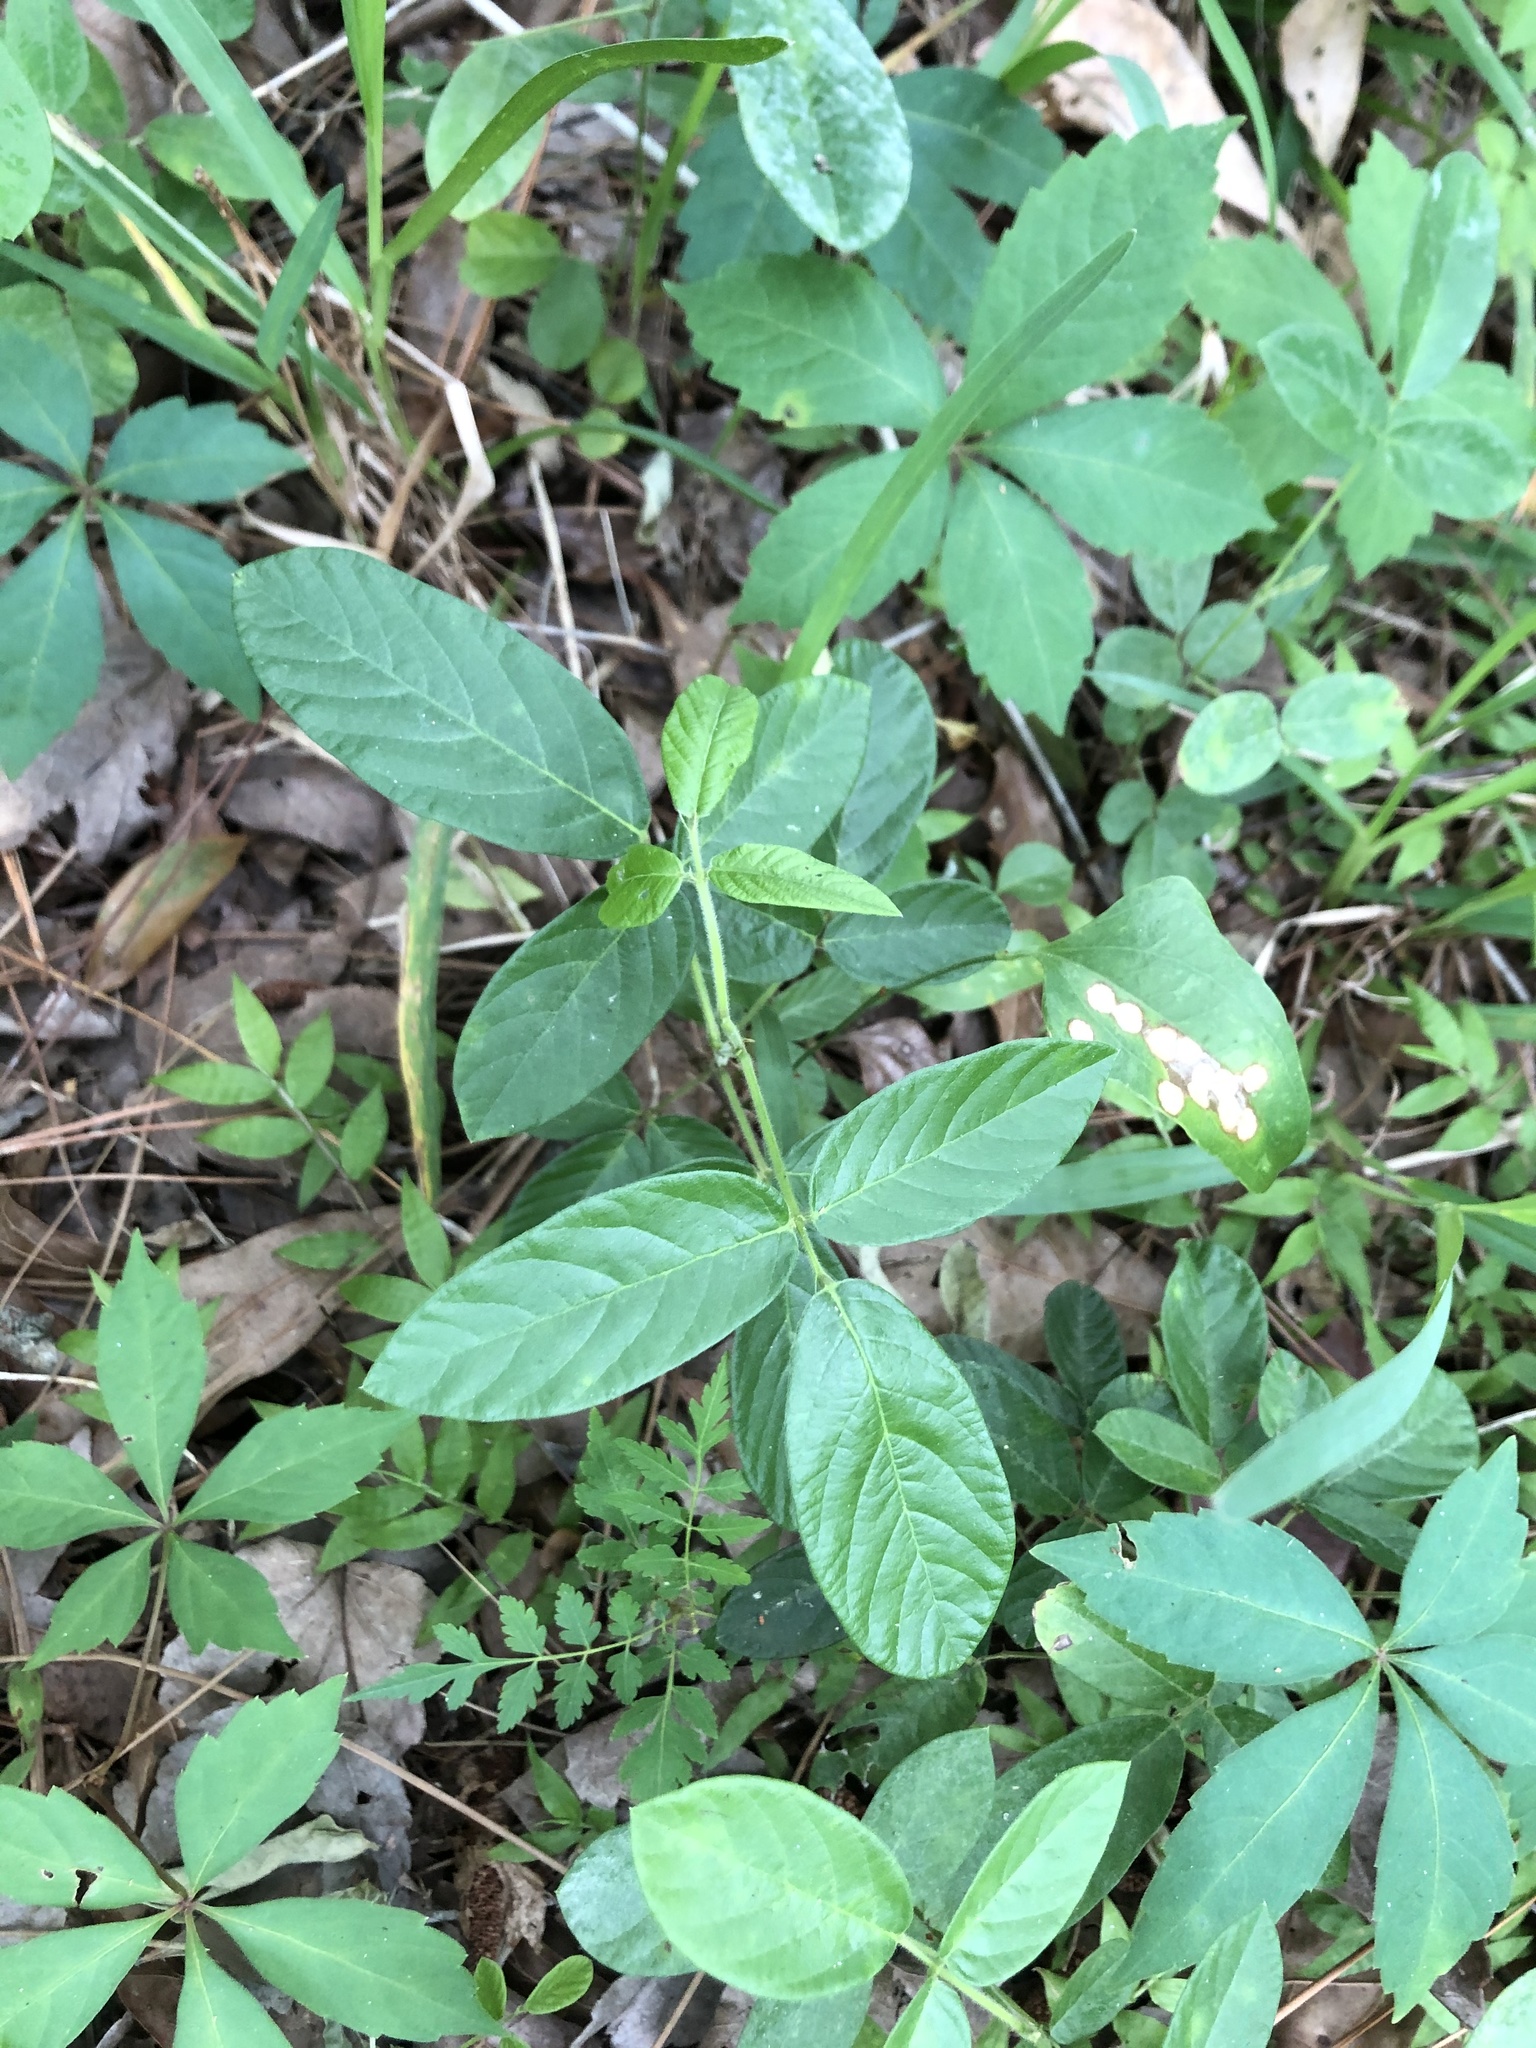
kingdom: Plantae
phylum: Tracheophyta
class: Magnoliopsida
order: Fabales
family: Fabaceae
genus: Desmodium
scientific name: Desmodium incanum
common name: Tickclover
